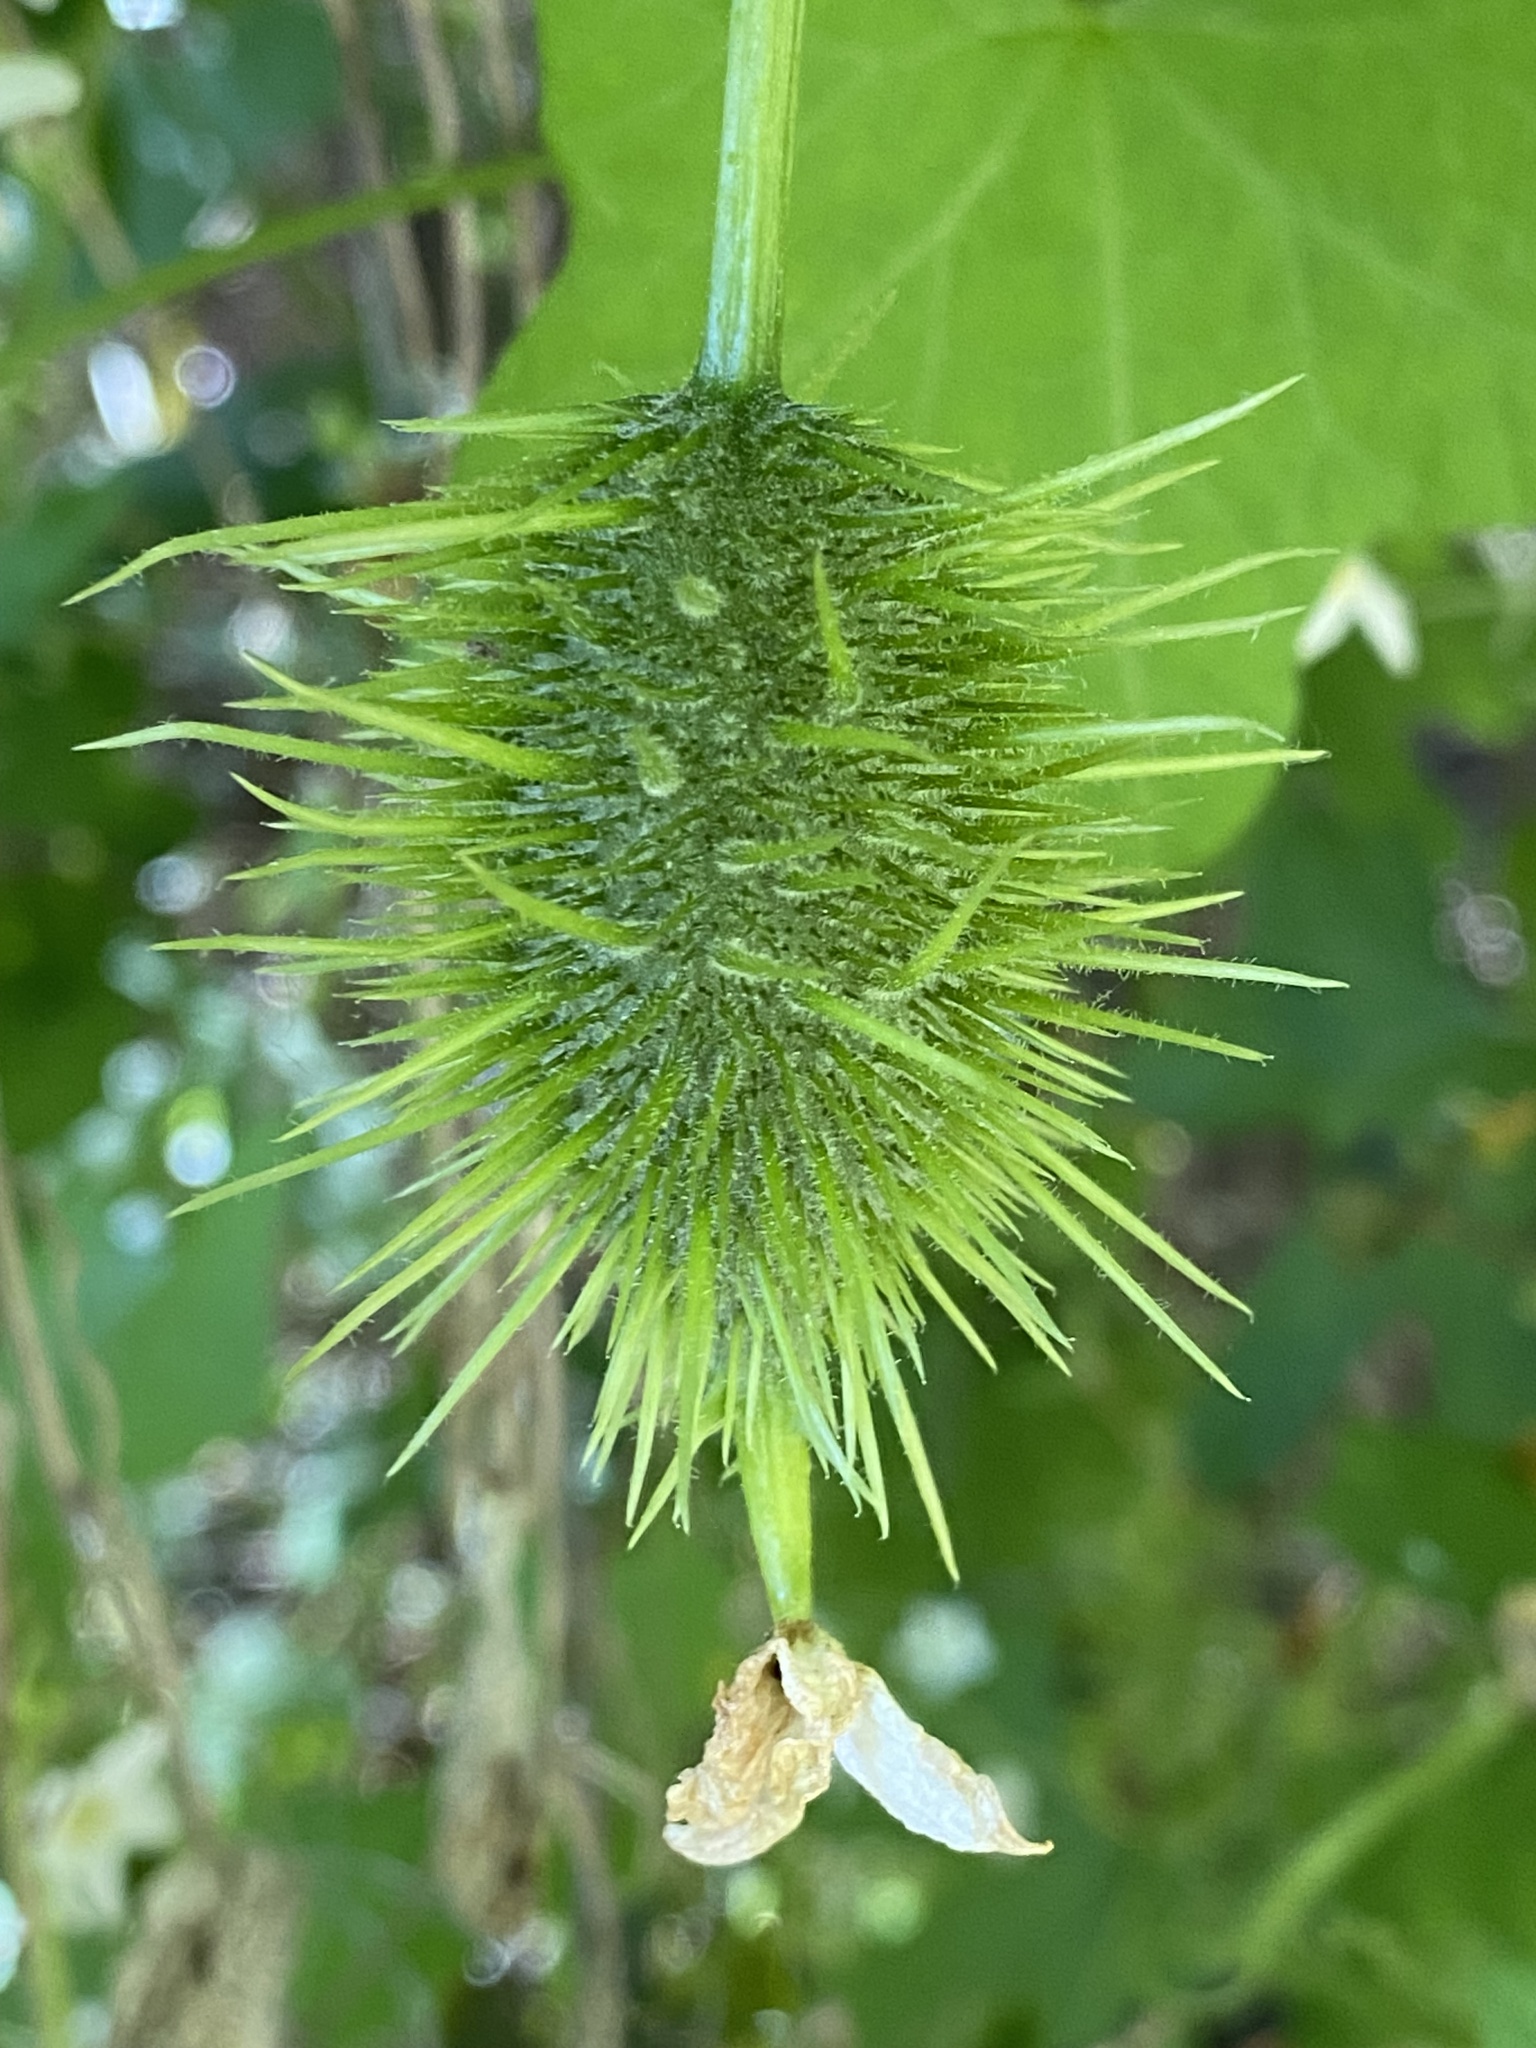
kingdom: Plantae
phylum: Tracheophyta
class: Magnoliopsida
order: Cucurbitales
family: Cucurbitaceae
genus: Marah
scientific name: Marah macrocarpa
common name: Cucamonga manroot
